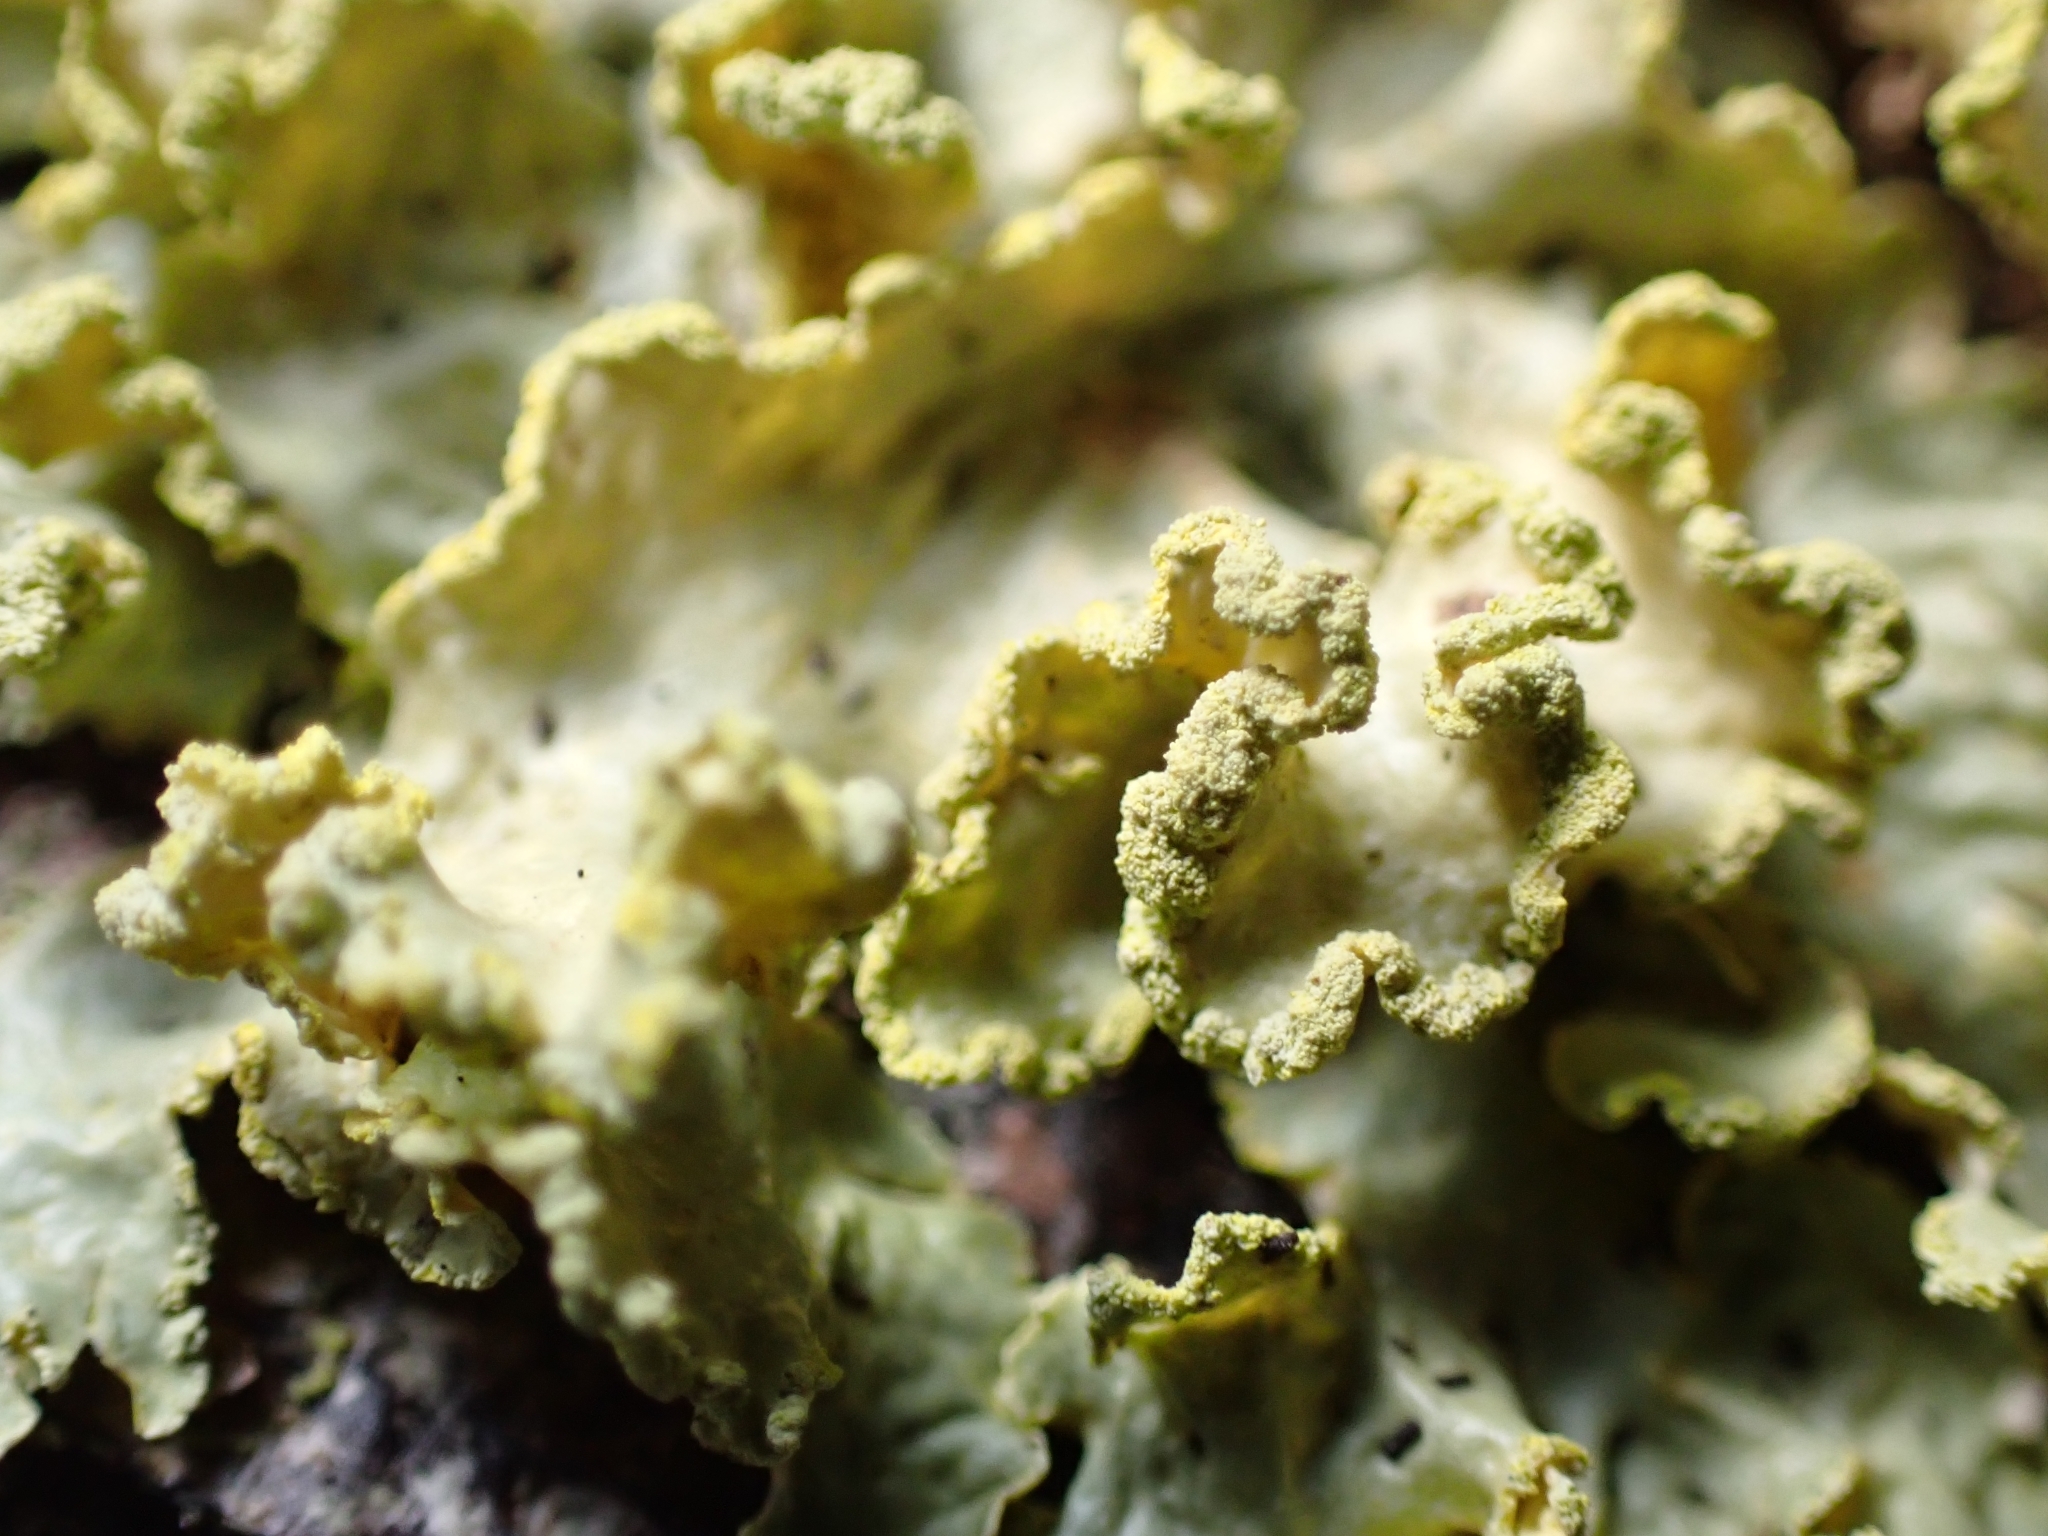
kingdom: Fungi
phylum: Ascomycota
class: Lecanoromycetes
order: Lecanorales
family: Parmeliaceae
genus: Vulpicida
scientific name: Vulpicida pinastri
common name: Powdered sunshine lichen
